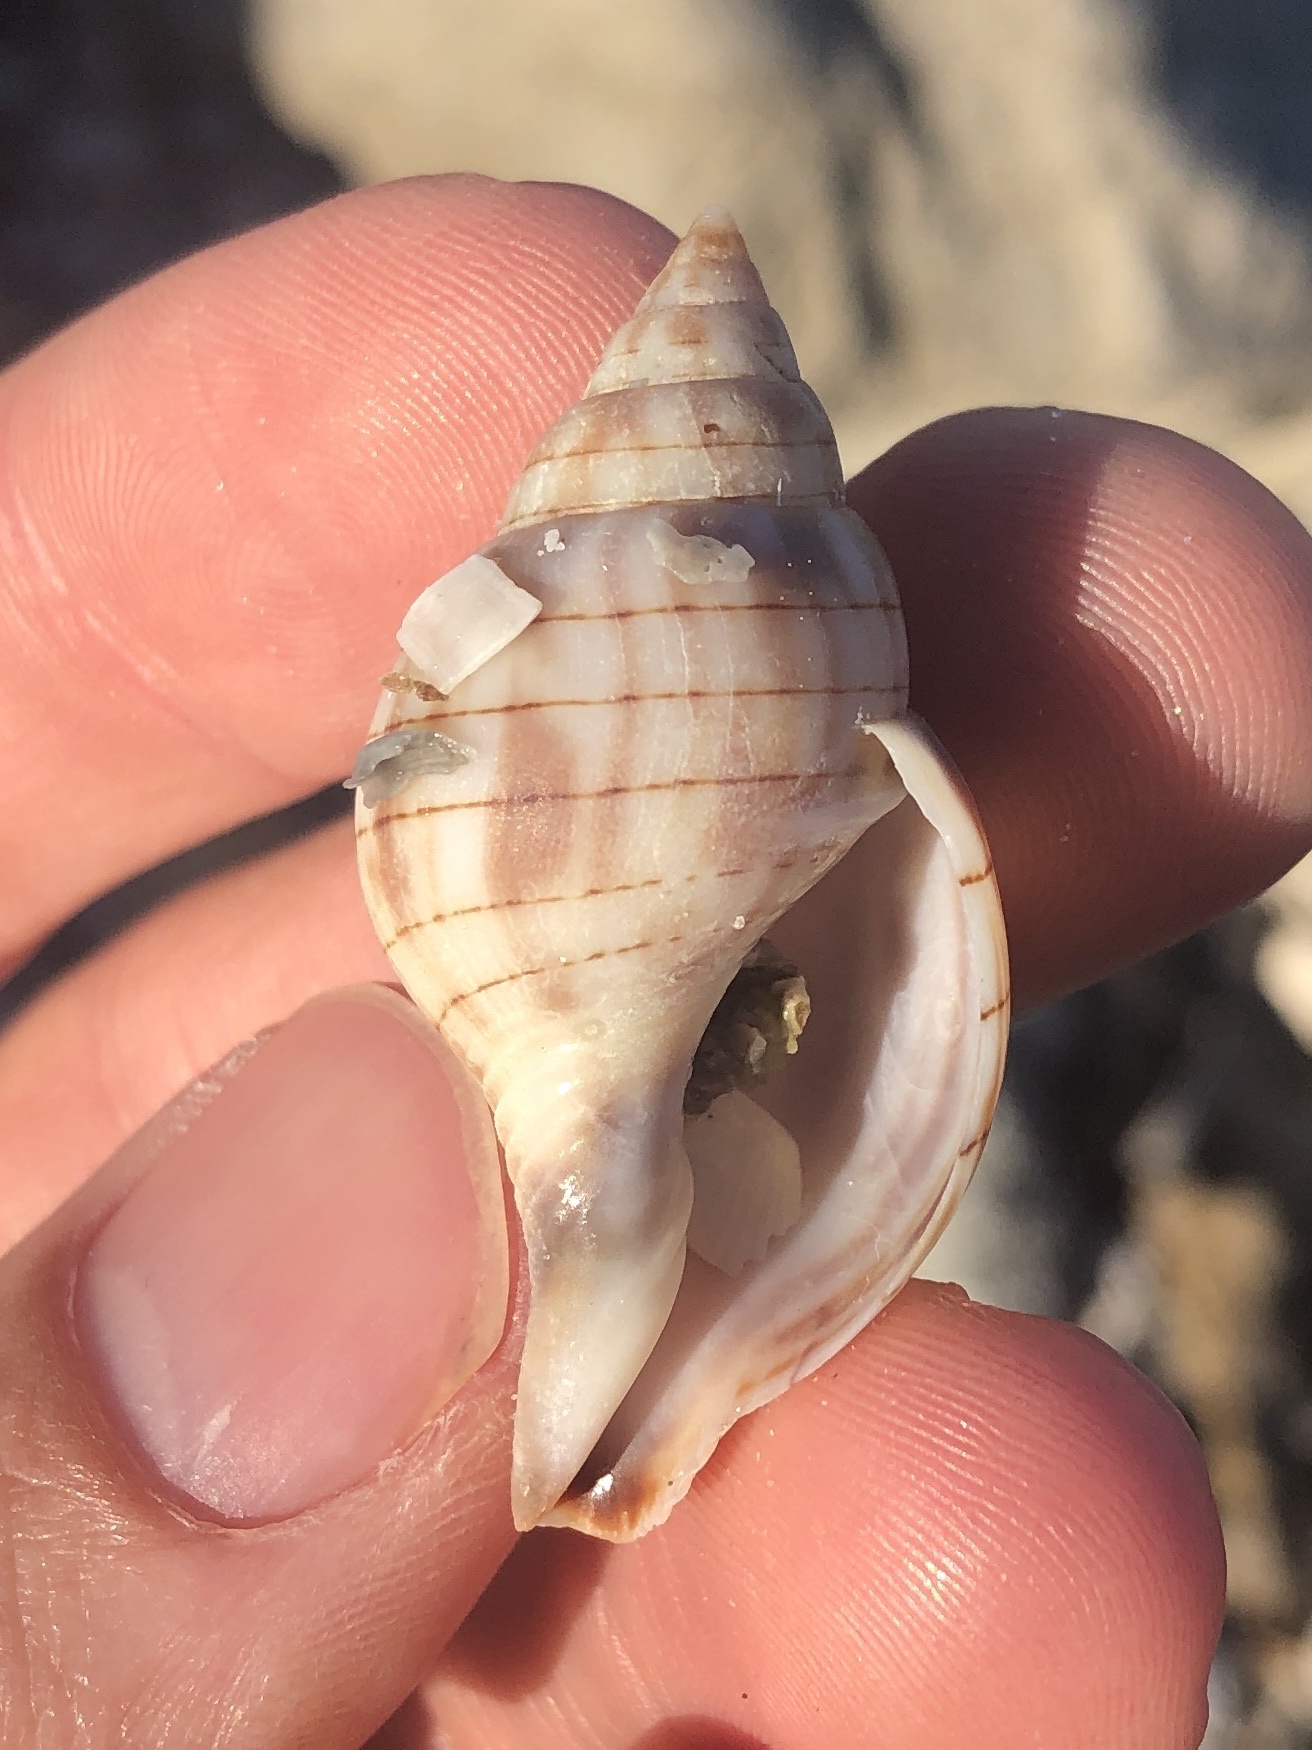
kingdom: Animalia
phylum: Mollusca
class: Gastropoda
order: Neogastropoda
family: Fasciolariidae
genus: Cinctura
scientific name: Cinctura hunteria
